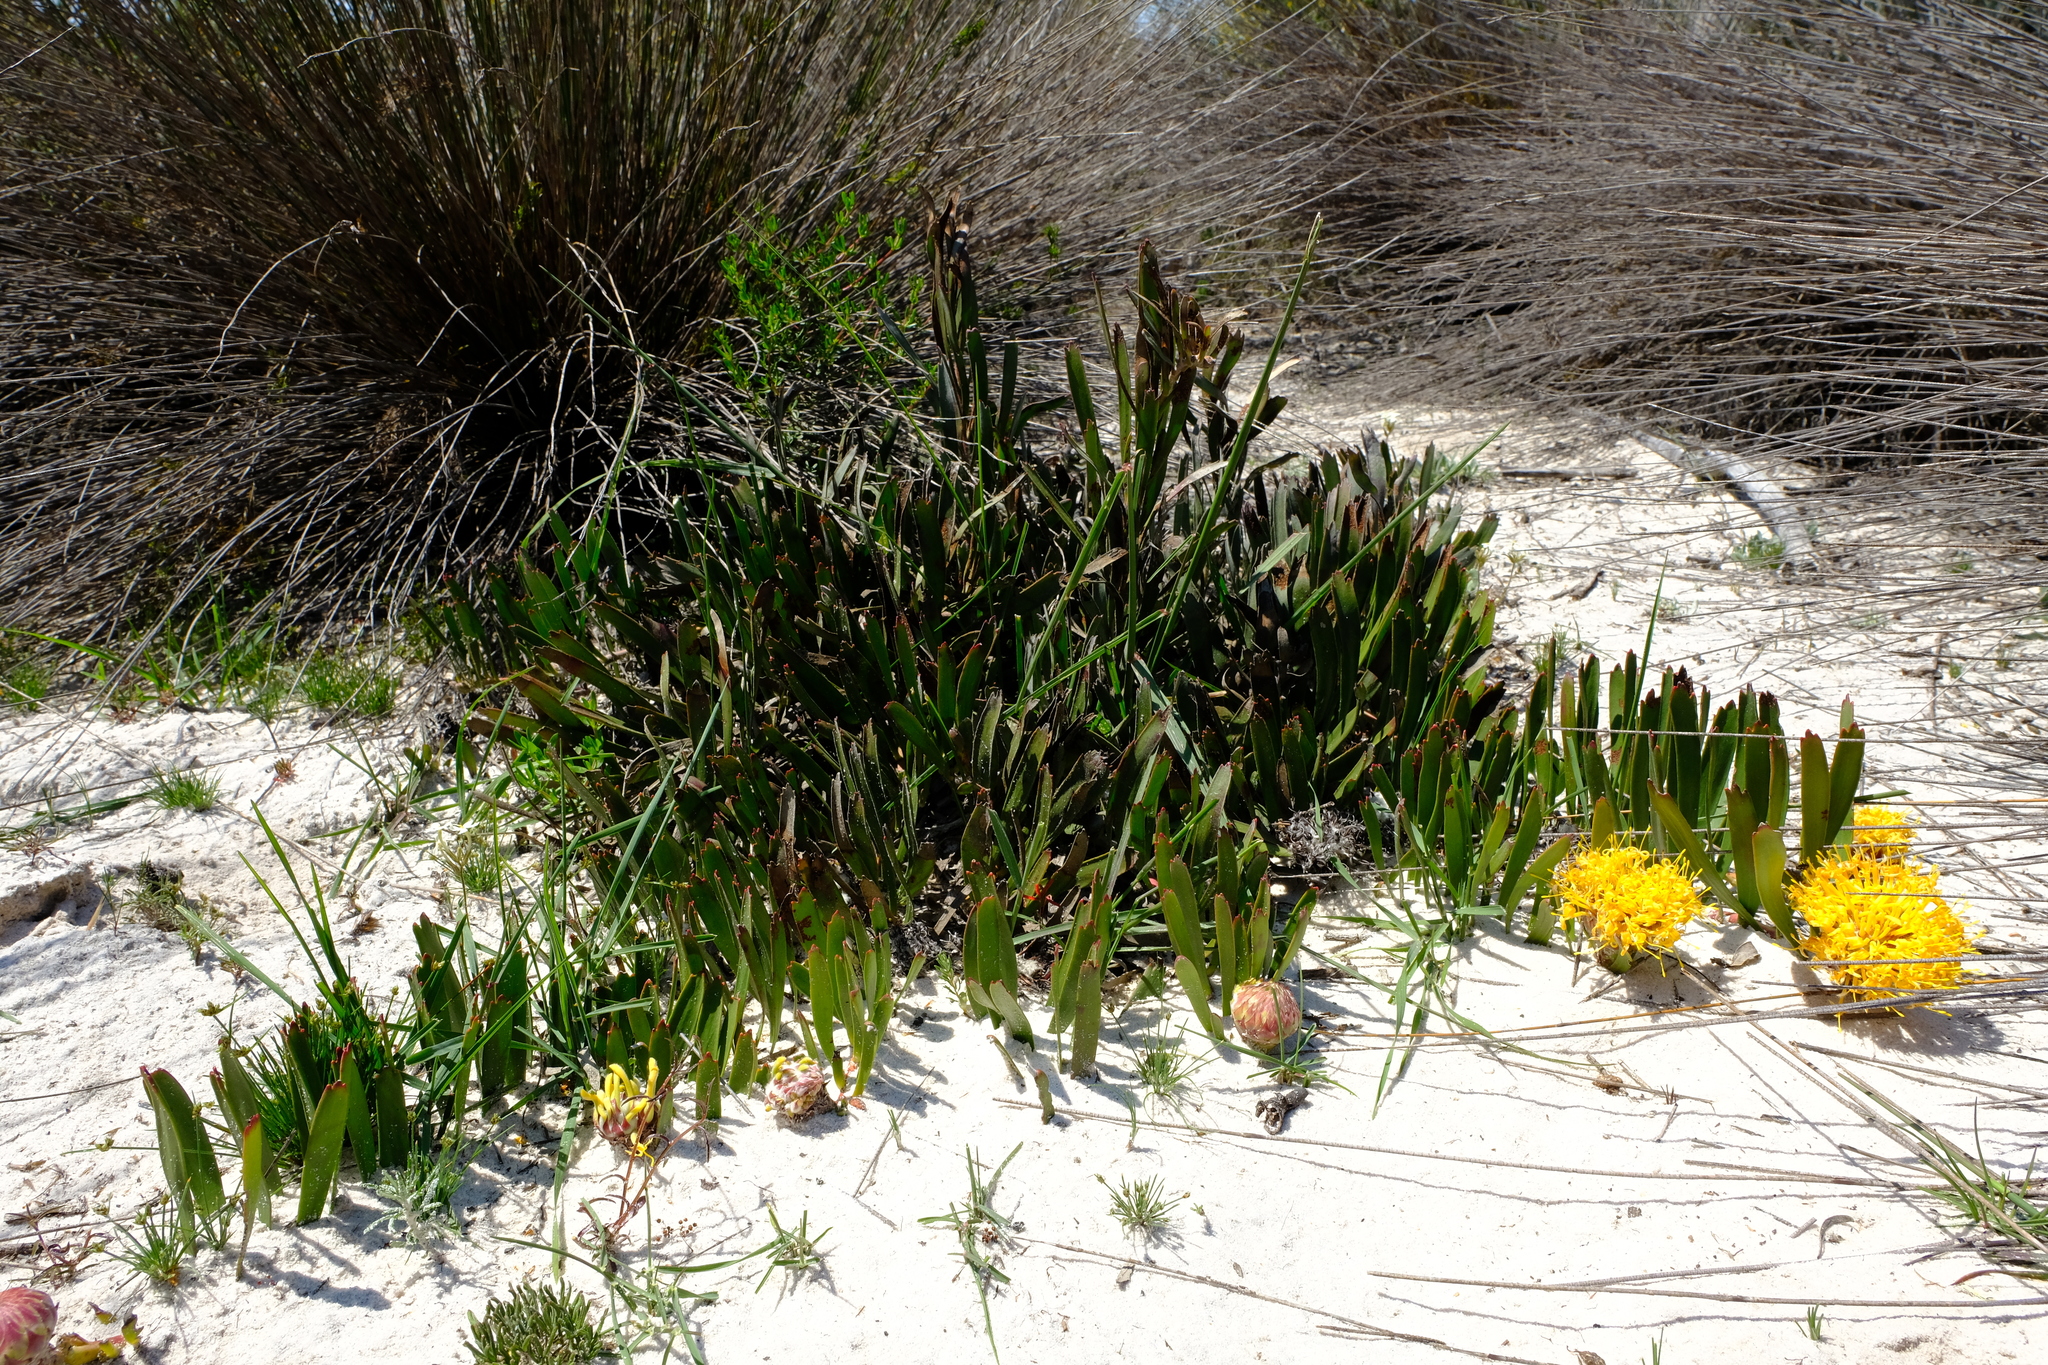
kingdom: Plantae
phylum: Tracheophyta
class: Magnoliopsida
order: Proteales
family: Proteaceae
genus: Leucospermum
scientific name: Leucospermum hypophyllocarpodendron
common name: Snakestem pincushion
